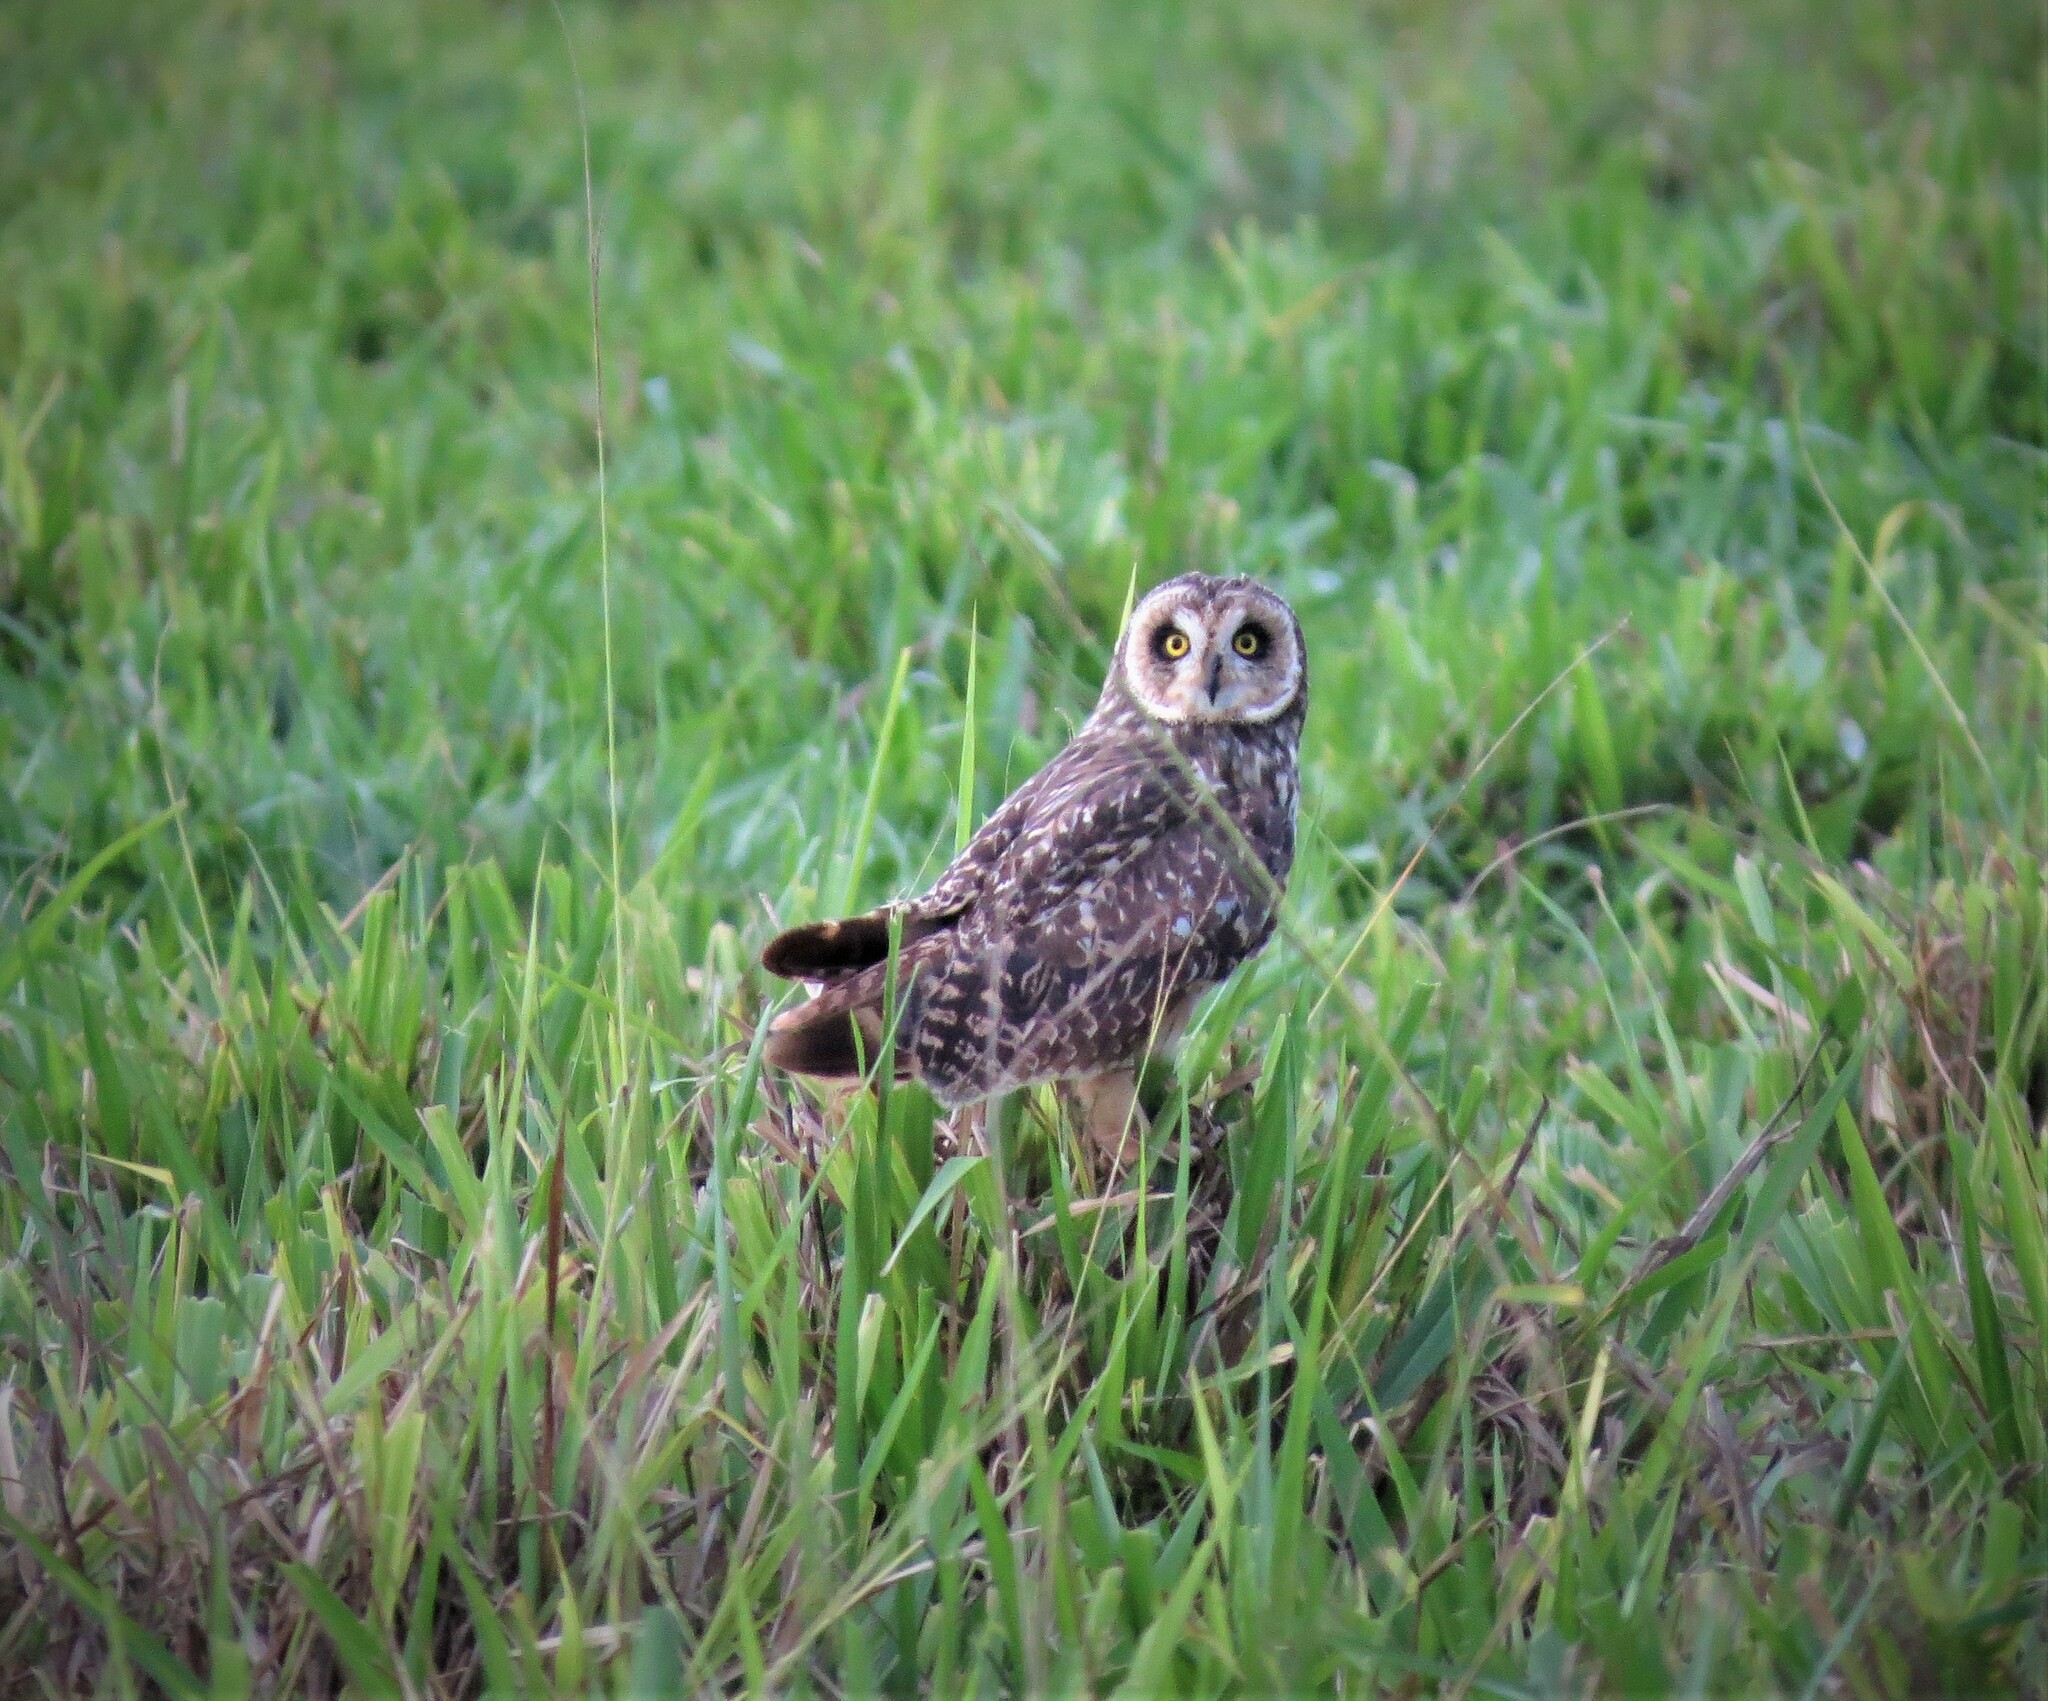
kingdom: Animalia
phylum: Chordata
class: Aves
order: Strigiformes
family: Strigidae
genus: Asio
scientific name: Asio flammeus
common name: Short-eared owl
